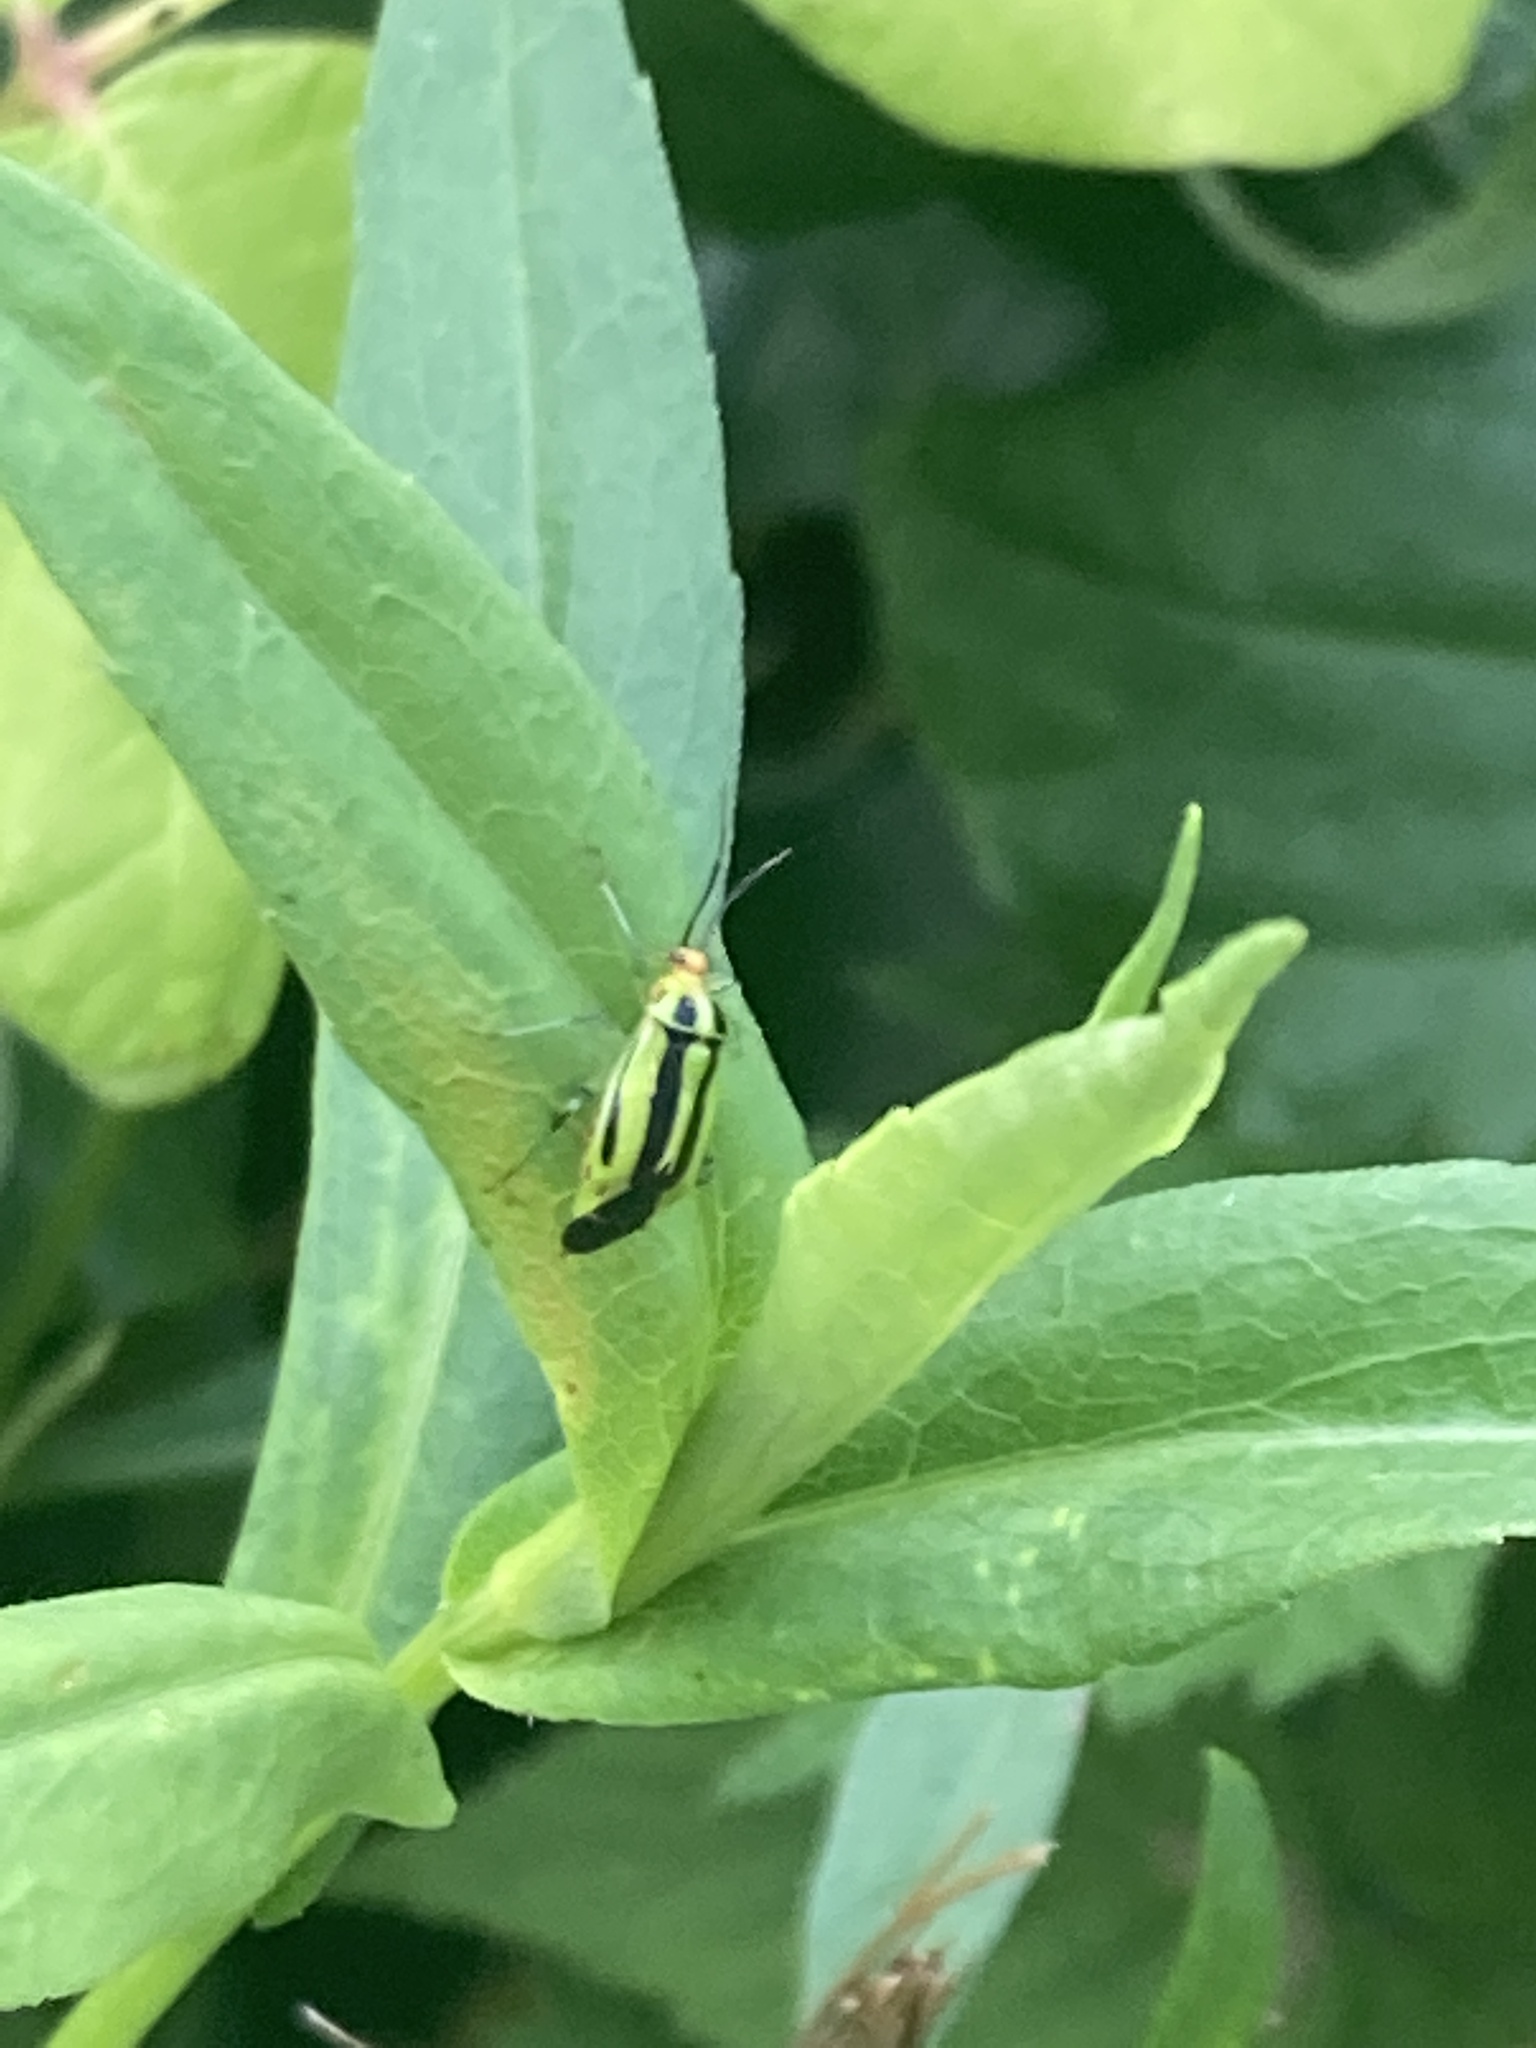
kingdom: Animalia
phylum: Arthropoda
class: Insecta
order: Hemiptera
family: Miridae
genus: Poecilocapsus
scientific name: Poecilocapsus lineatus
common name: Four-lined plant bug
